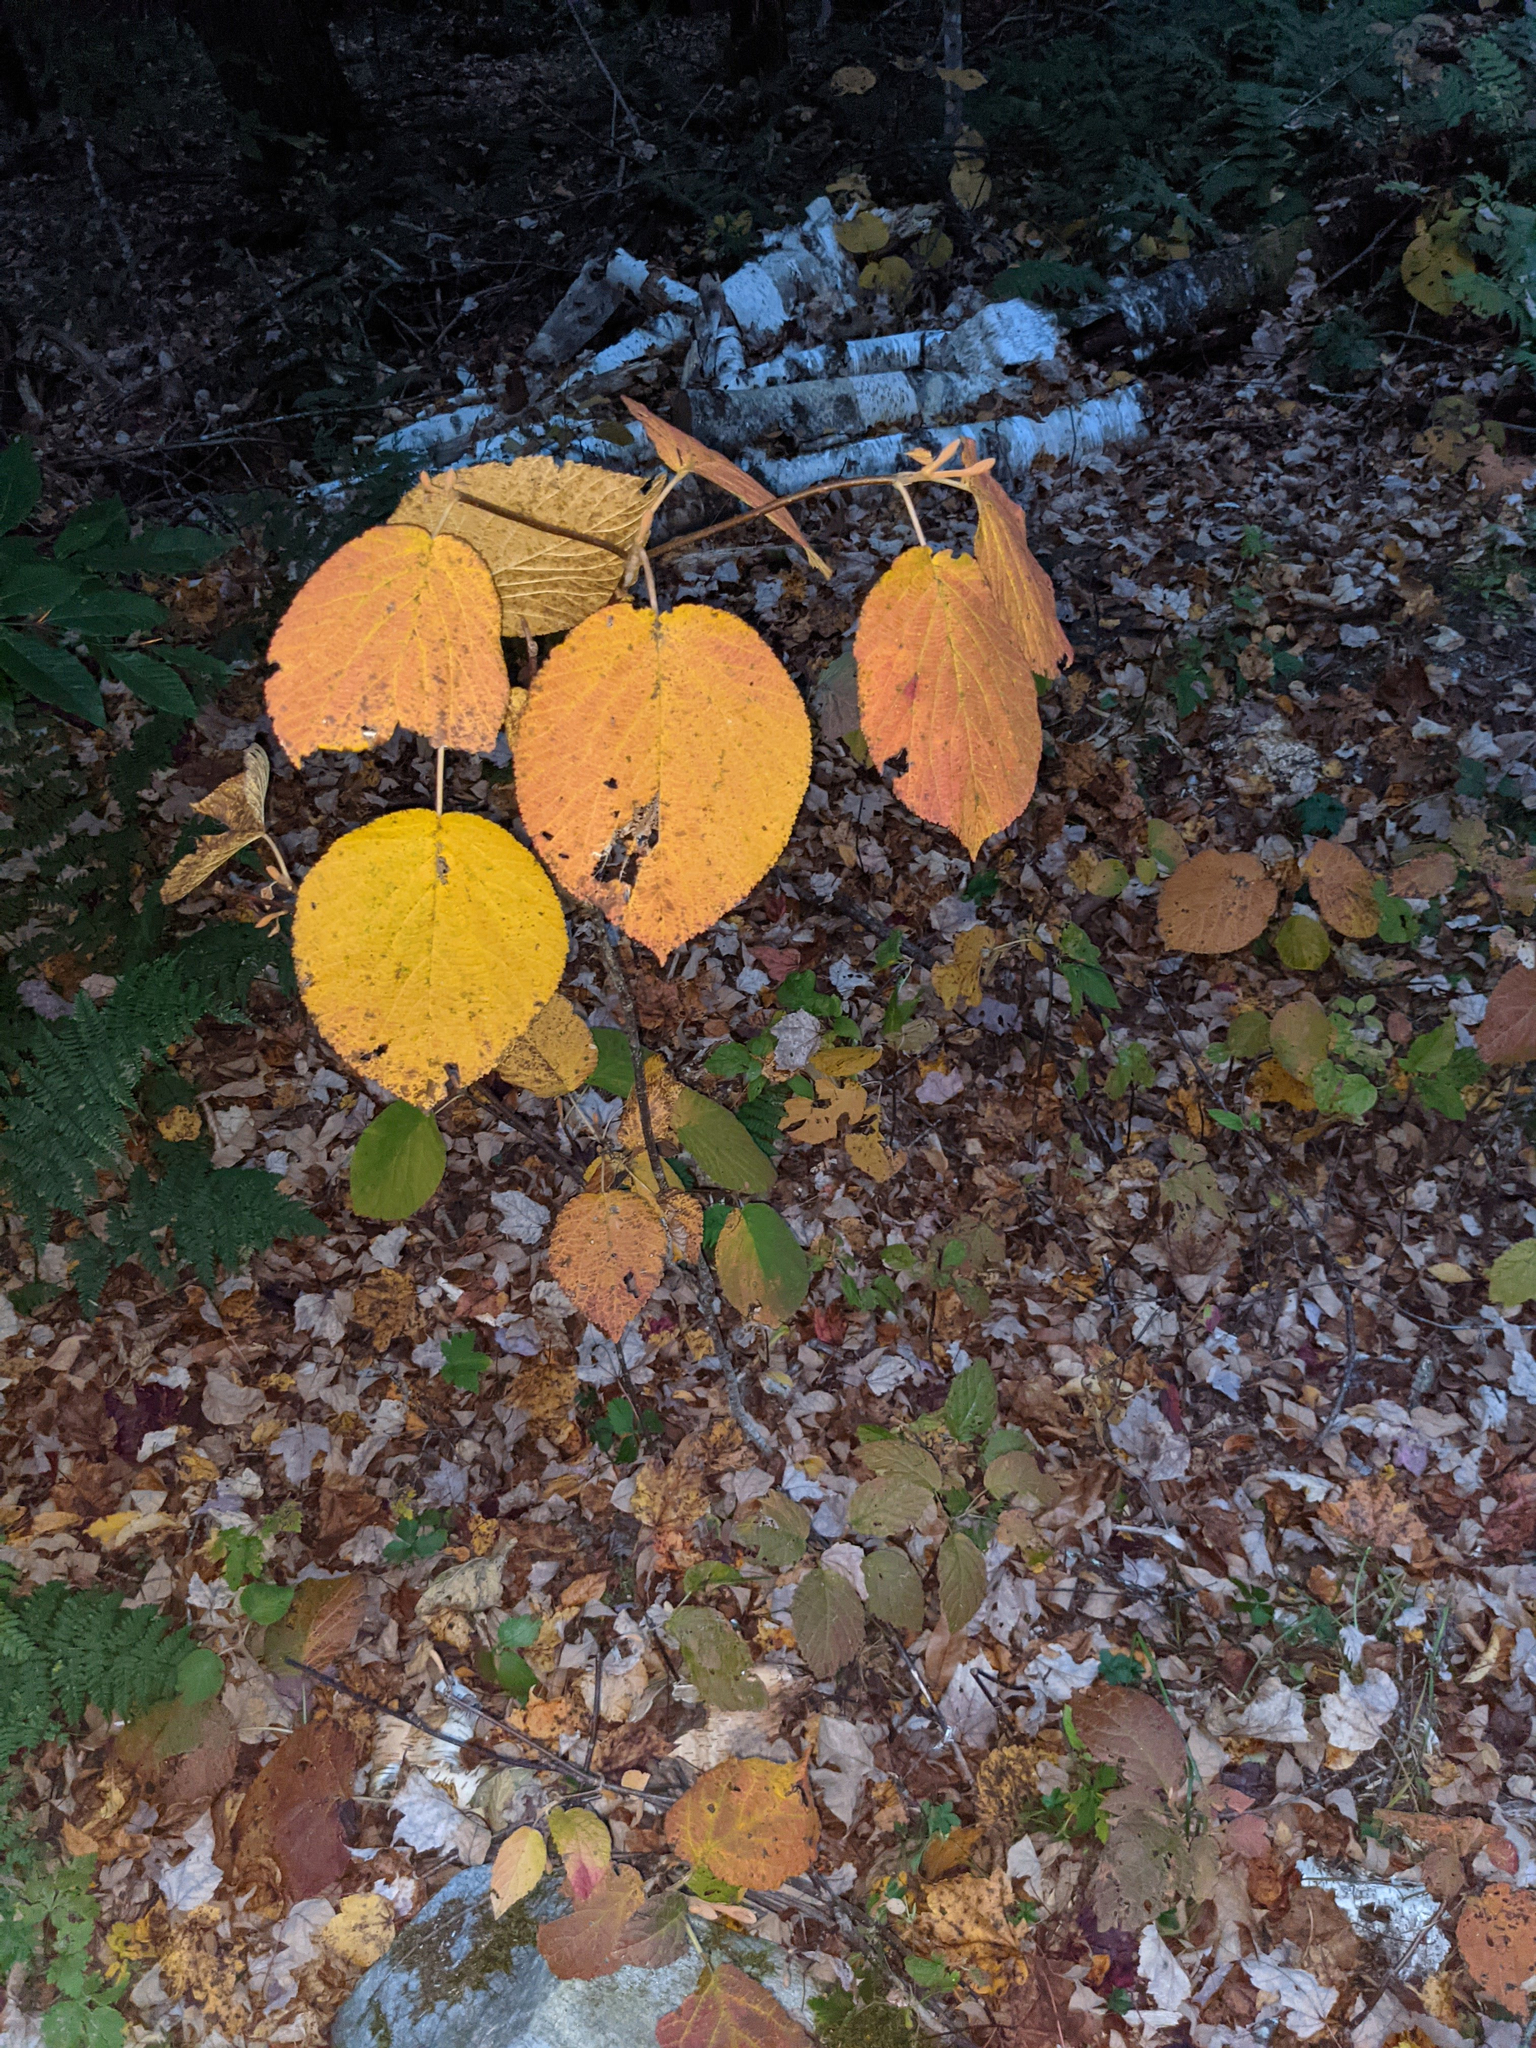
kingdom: Plantae
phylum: Tracheophyta
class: Magnoliopsida
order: Dipsacales
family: Viburnaceae
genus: Viburnum
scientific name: Viburnum lantanoides
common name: Hobblebush
